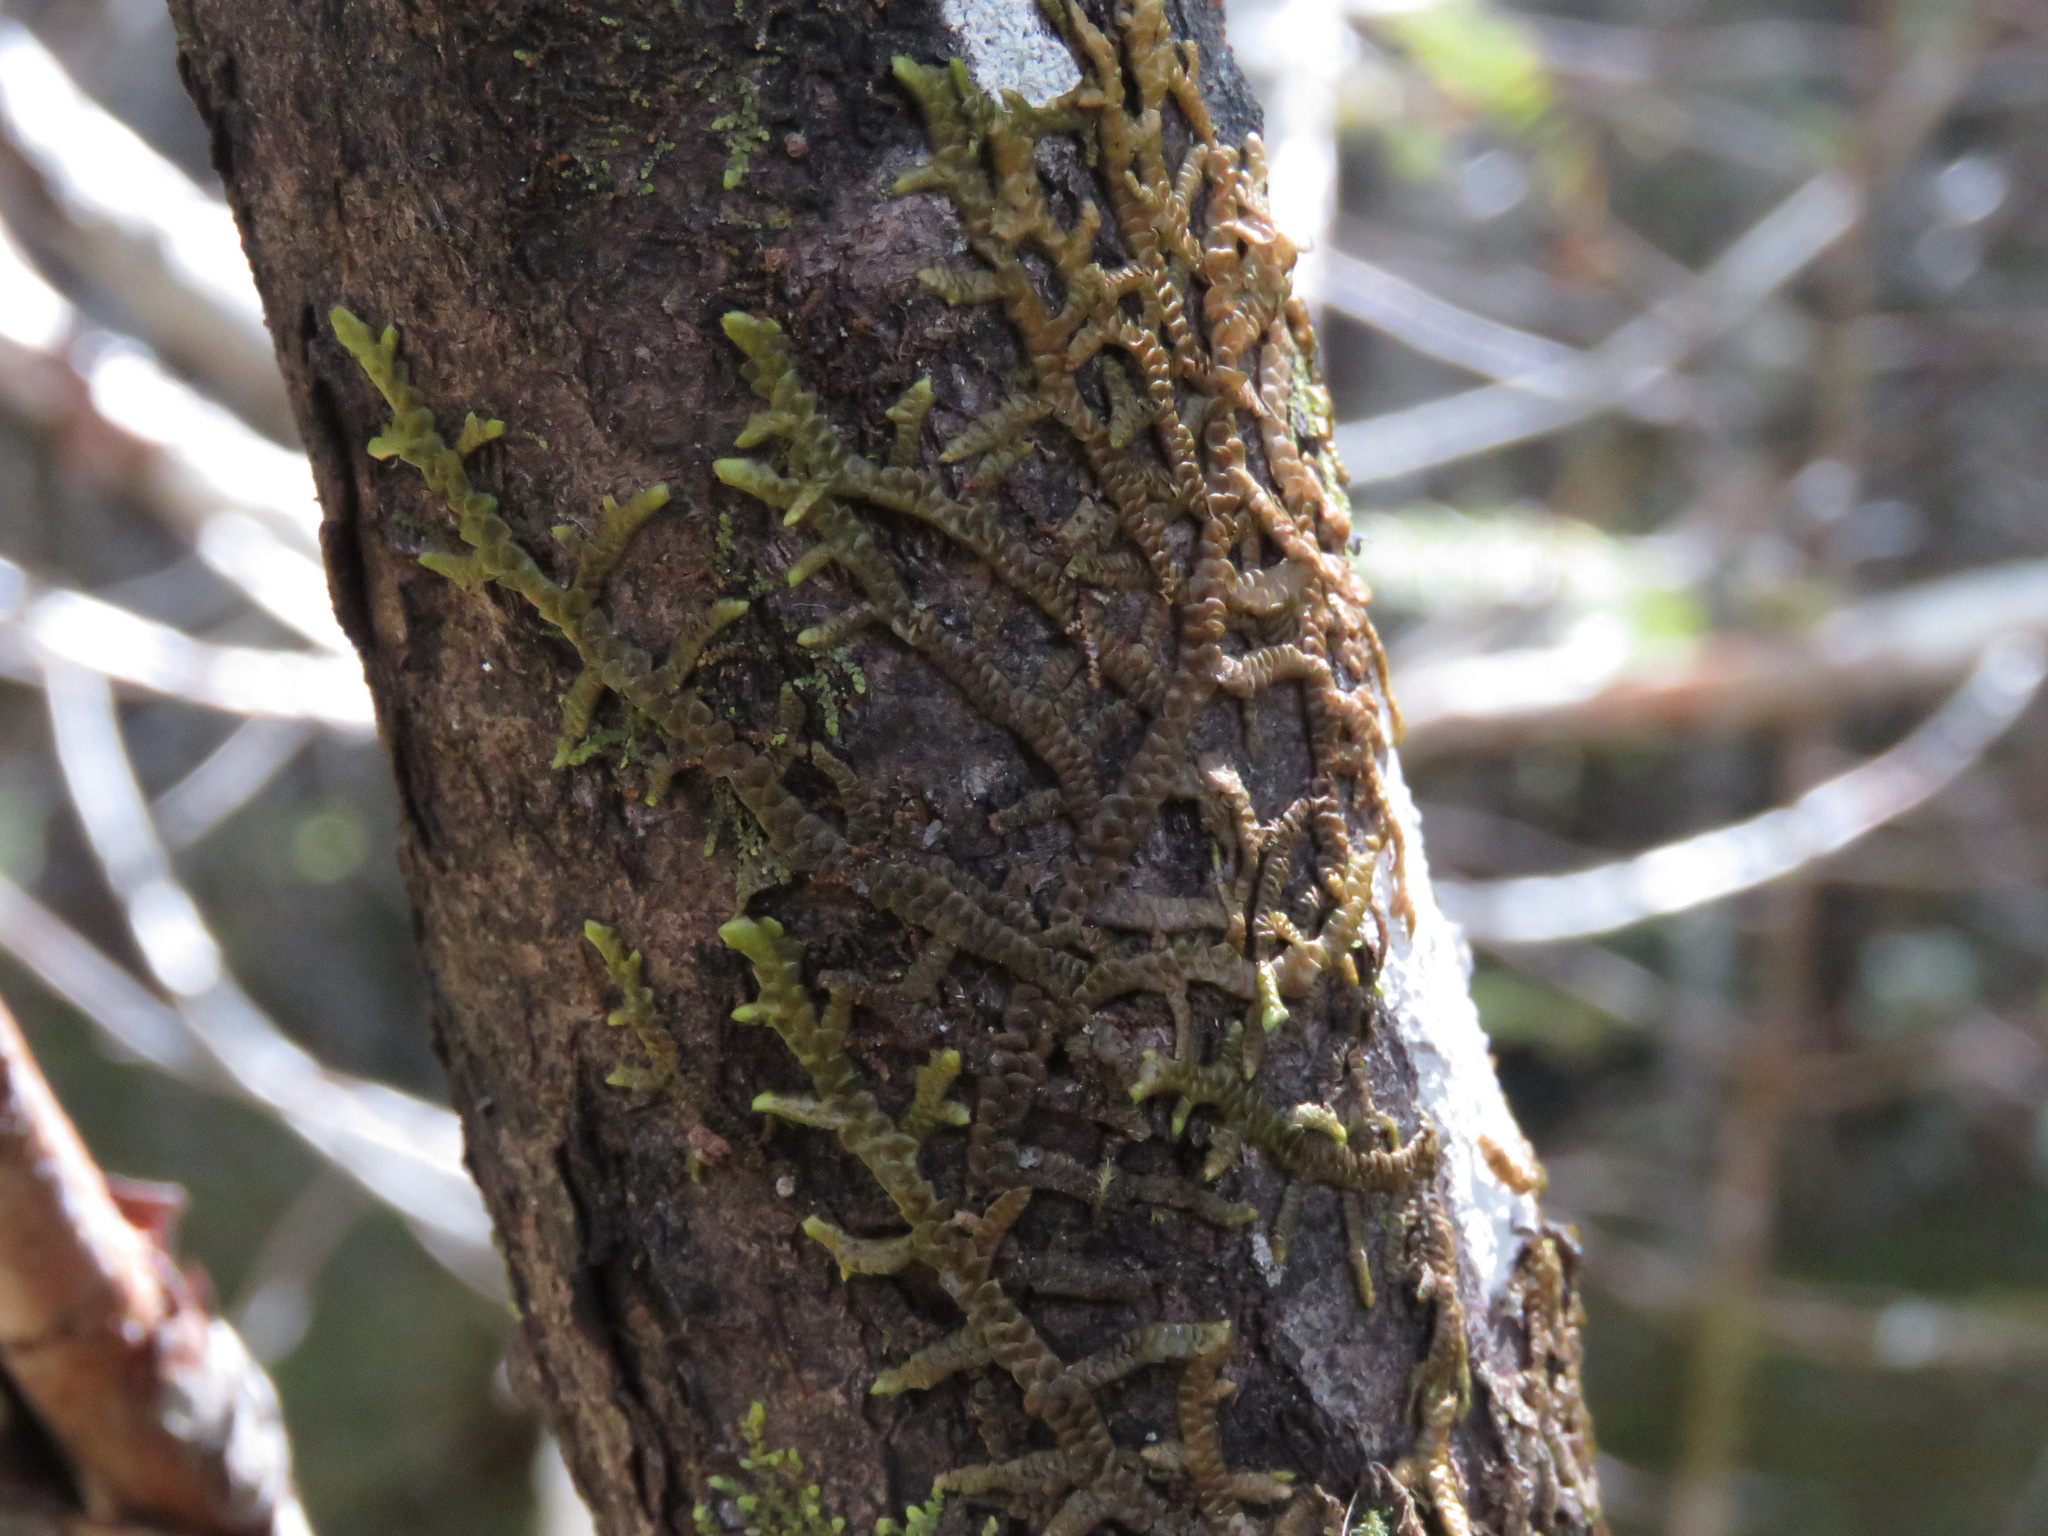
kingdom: Plantae
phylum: Marchantiophyta
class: Jungermanniopsida
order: Porellales
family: Porellaceae
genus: Porella
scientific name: Porella navicularis
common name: Tree ruffle liverwort
